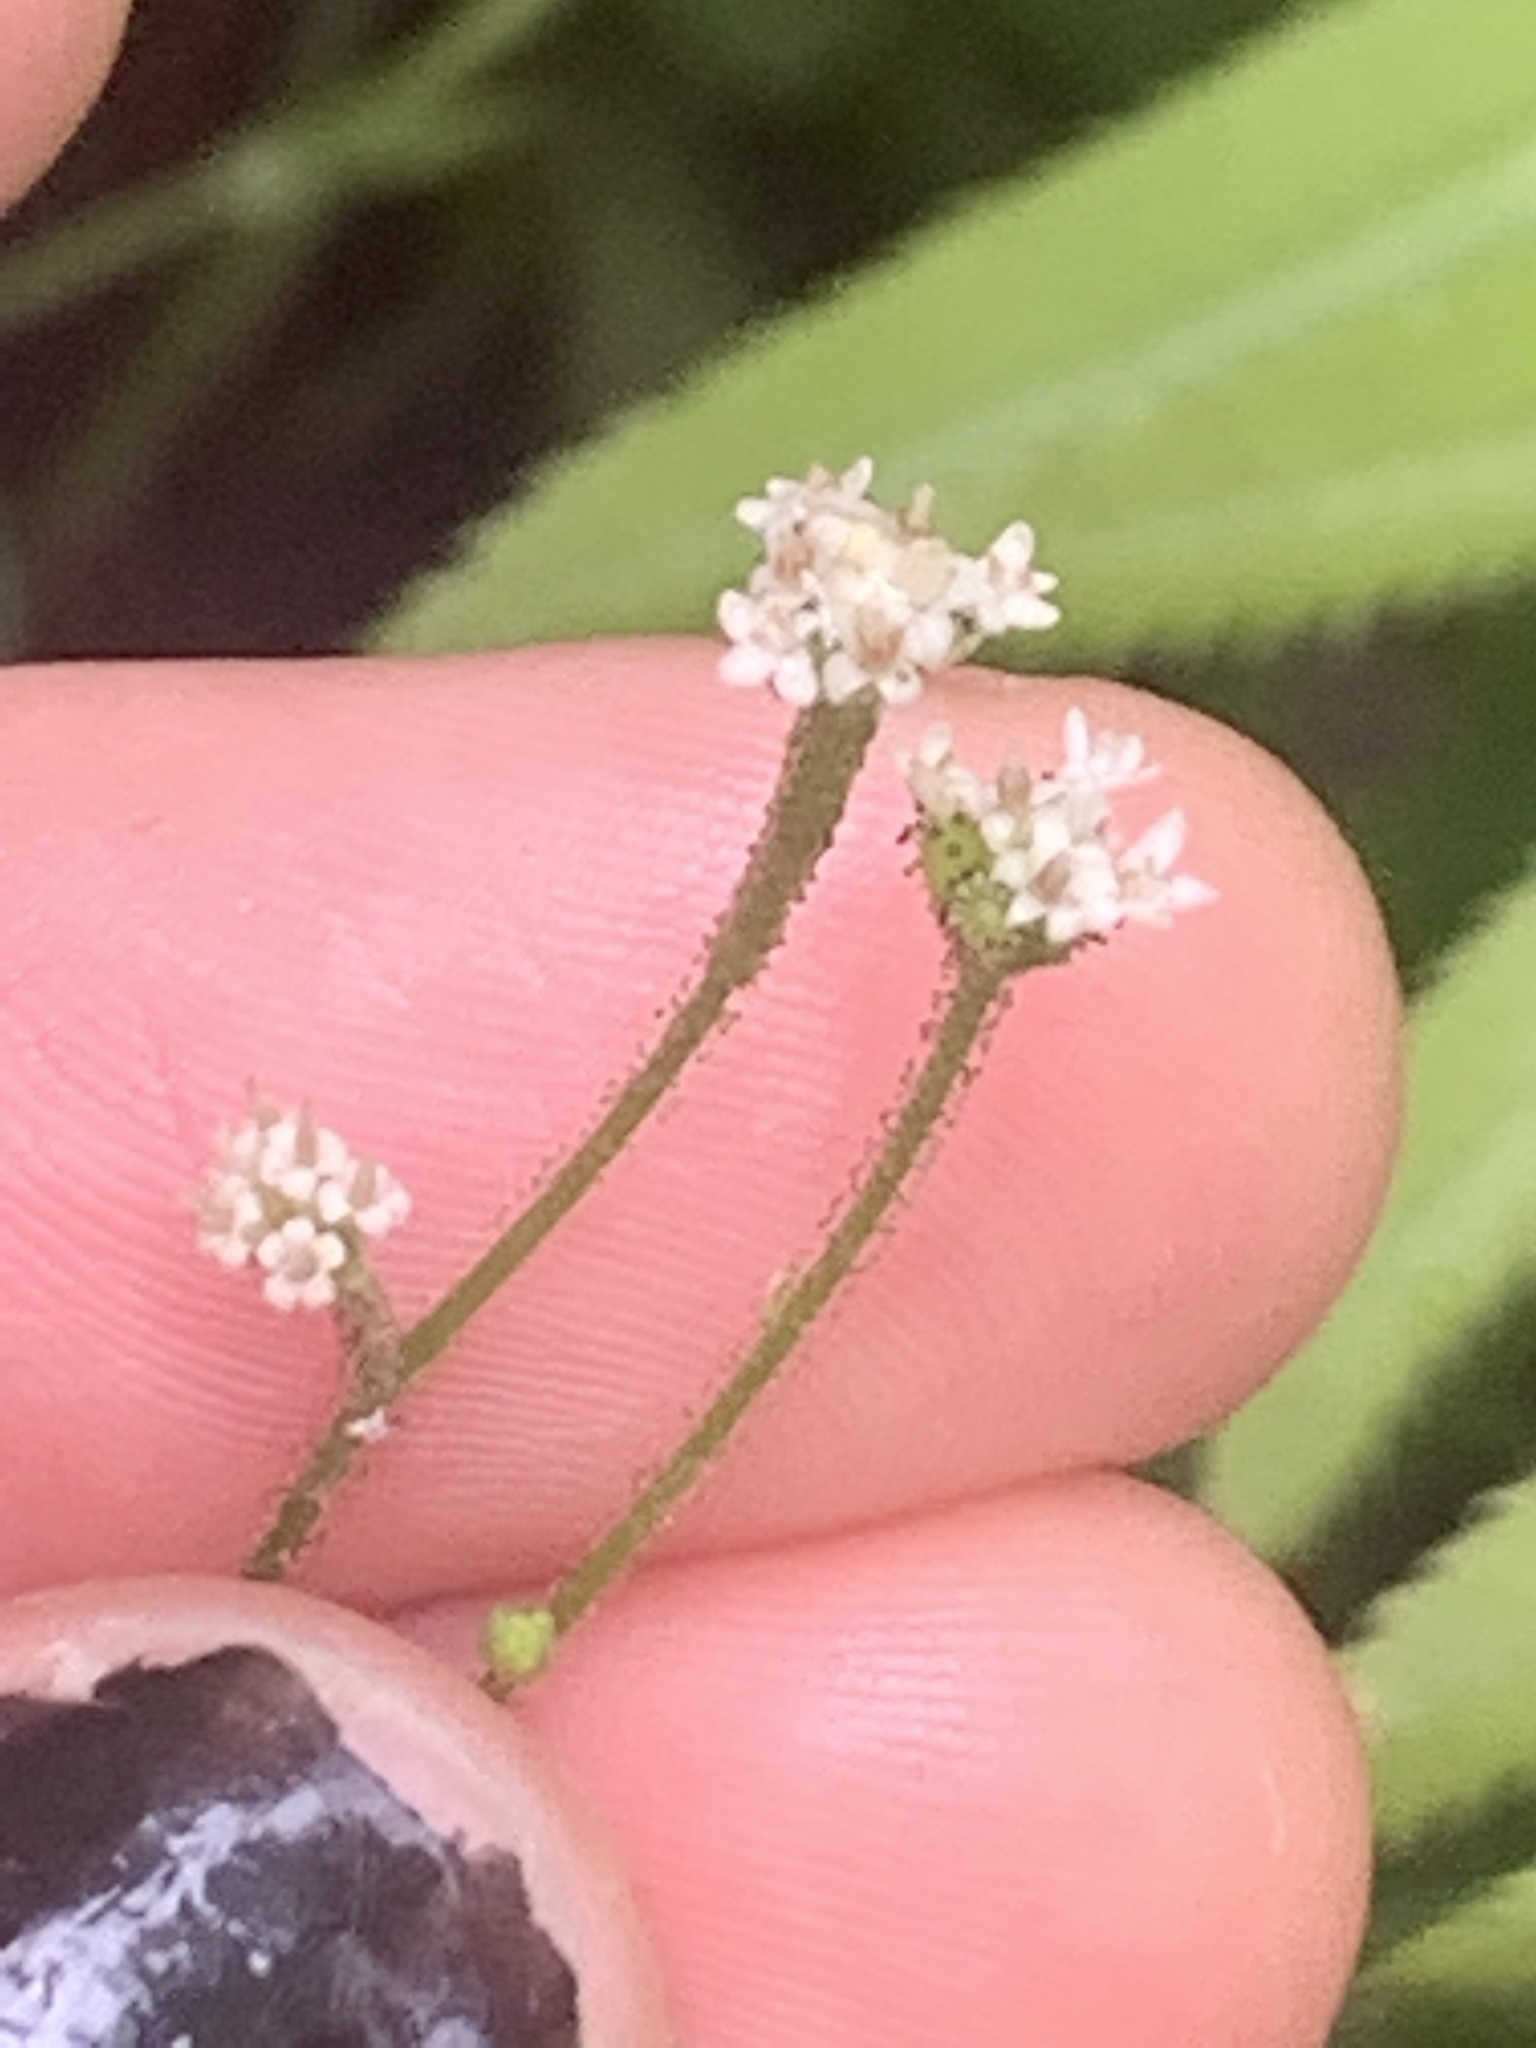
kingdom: Plantae
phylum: Tracheophyta
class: Magnoliopsida
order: Asterales
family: Asteraceae
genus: Adenocaulon
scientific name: Adenocaulon bicolor
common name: Trailplant
